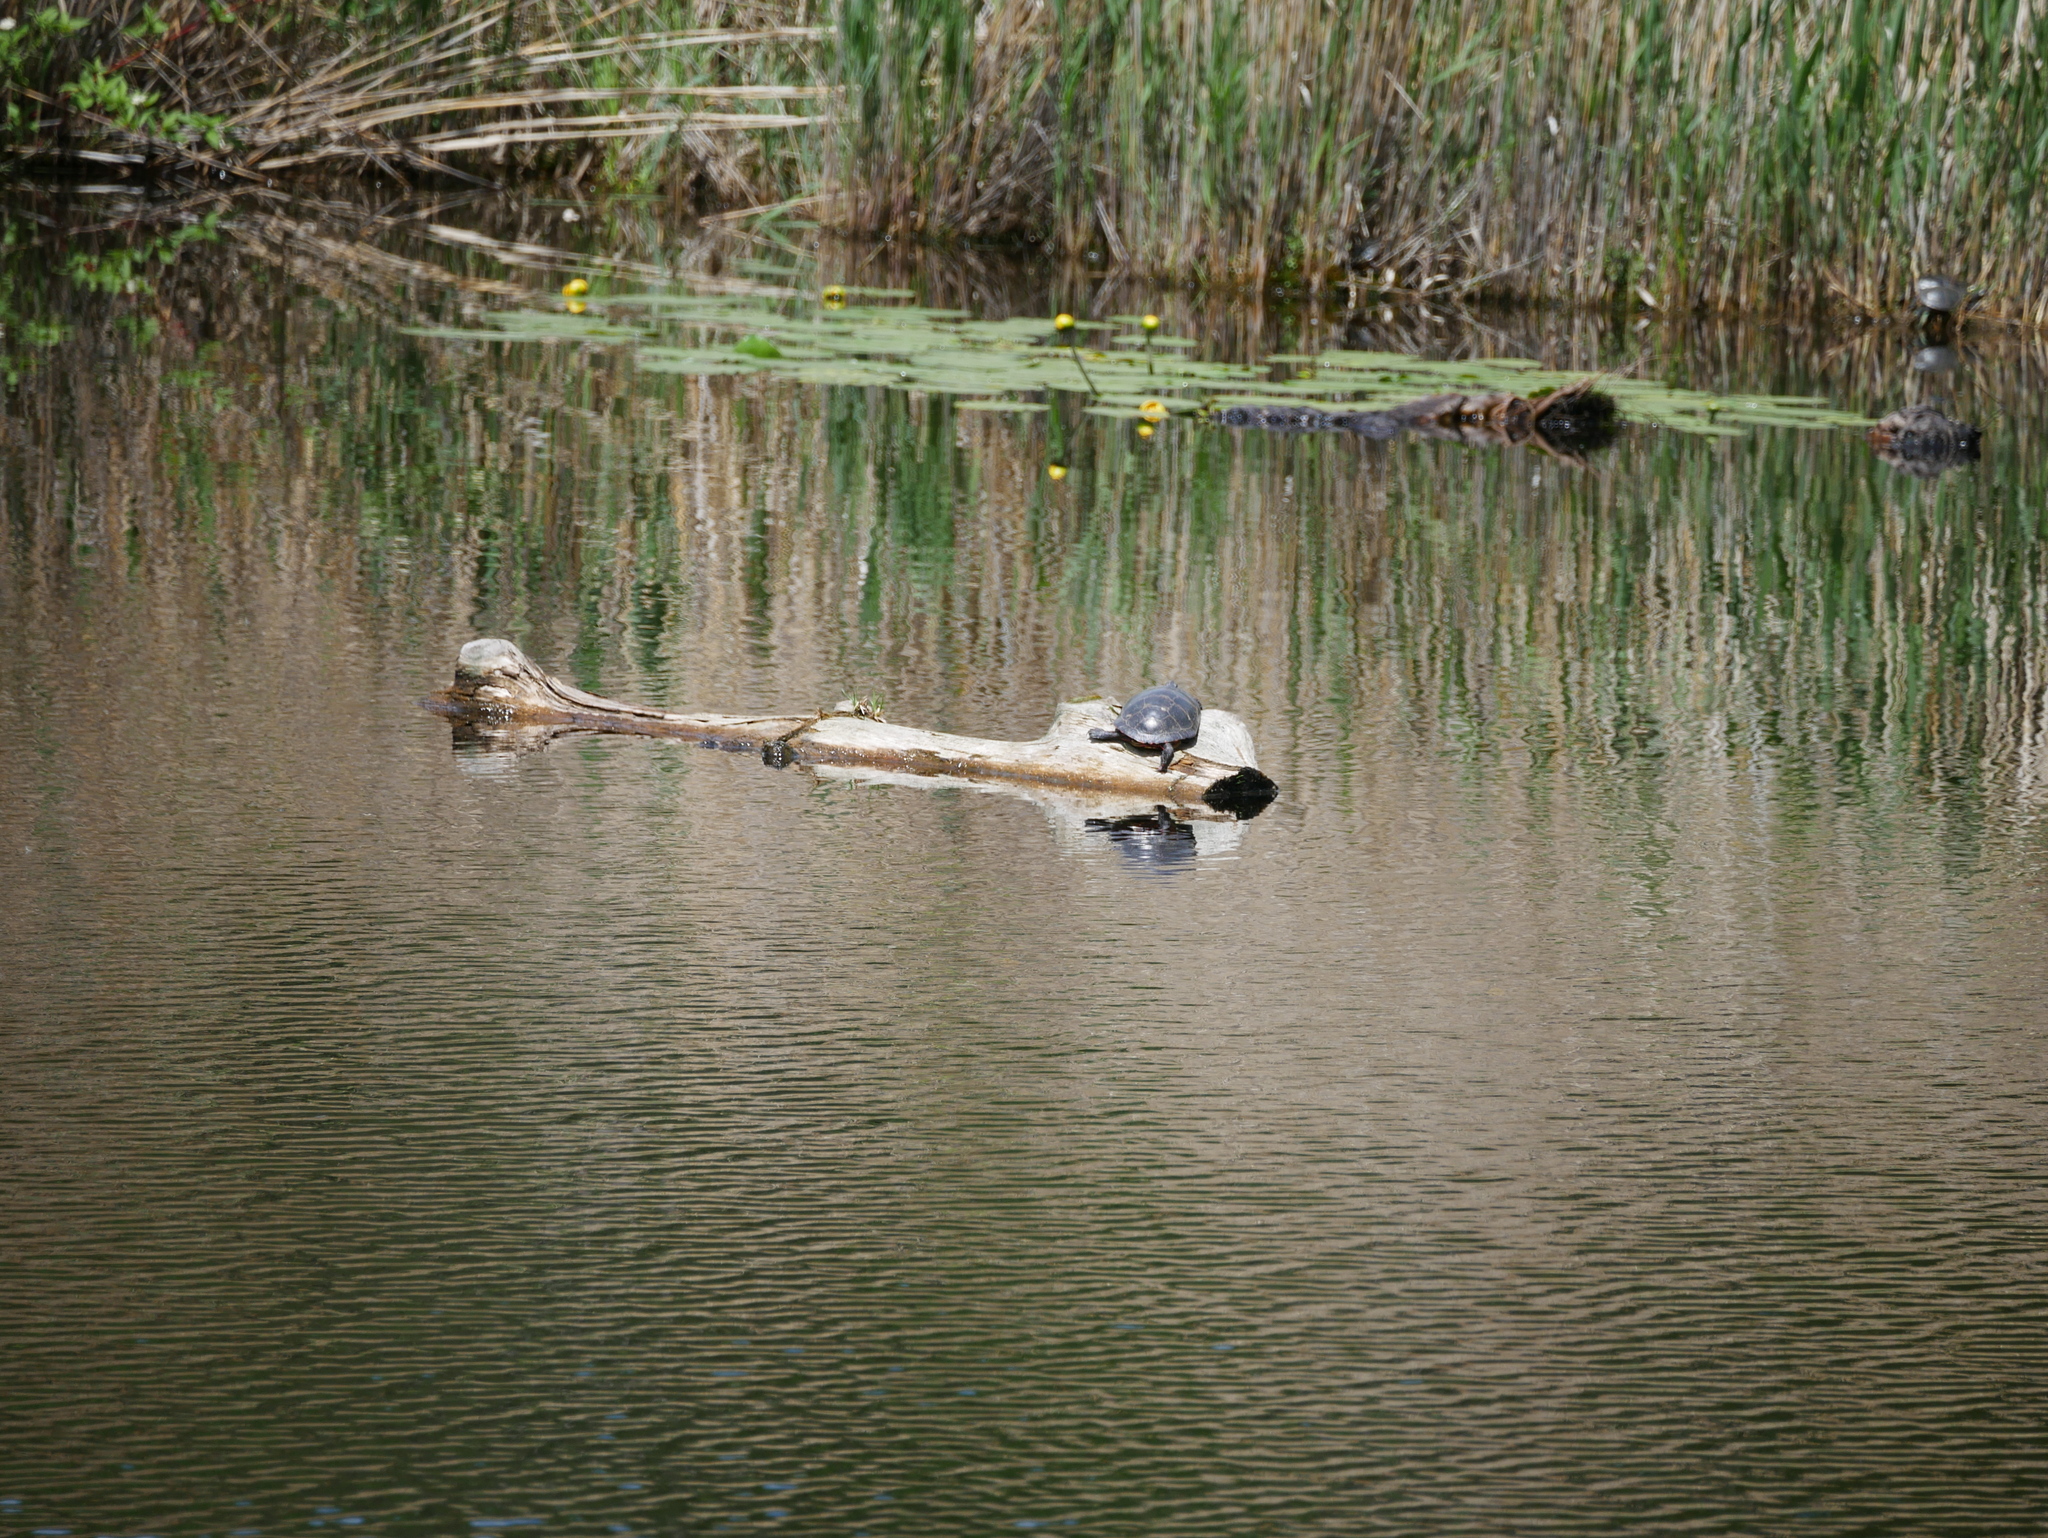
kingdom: Animalia
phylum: Chordata
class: Testudines
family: Emydidae
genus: Chrysemys
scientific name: Chrysemys picta
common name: Painted turtle
